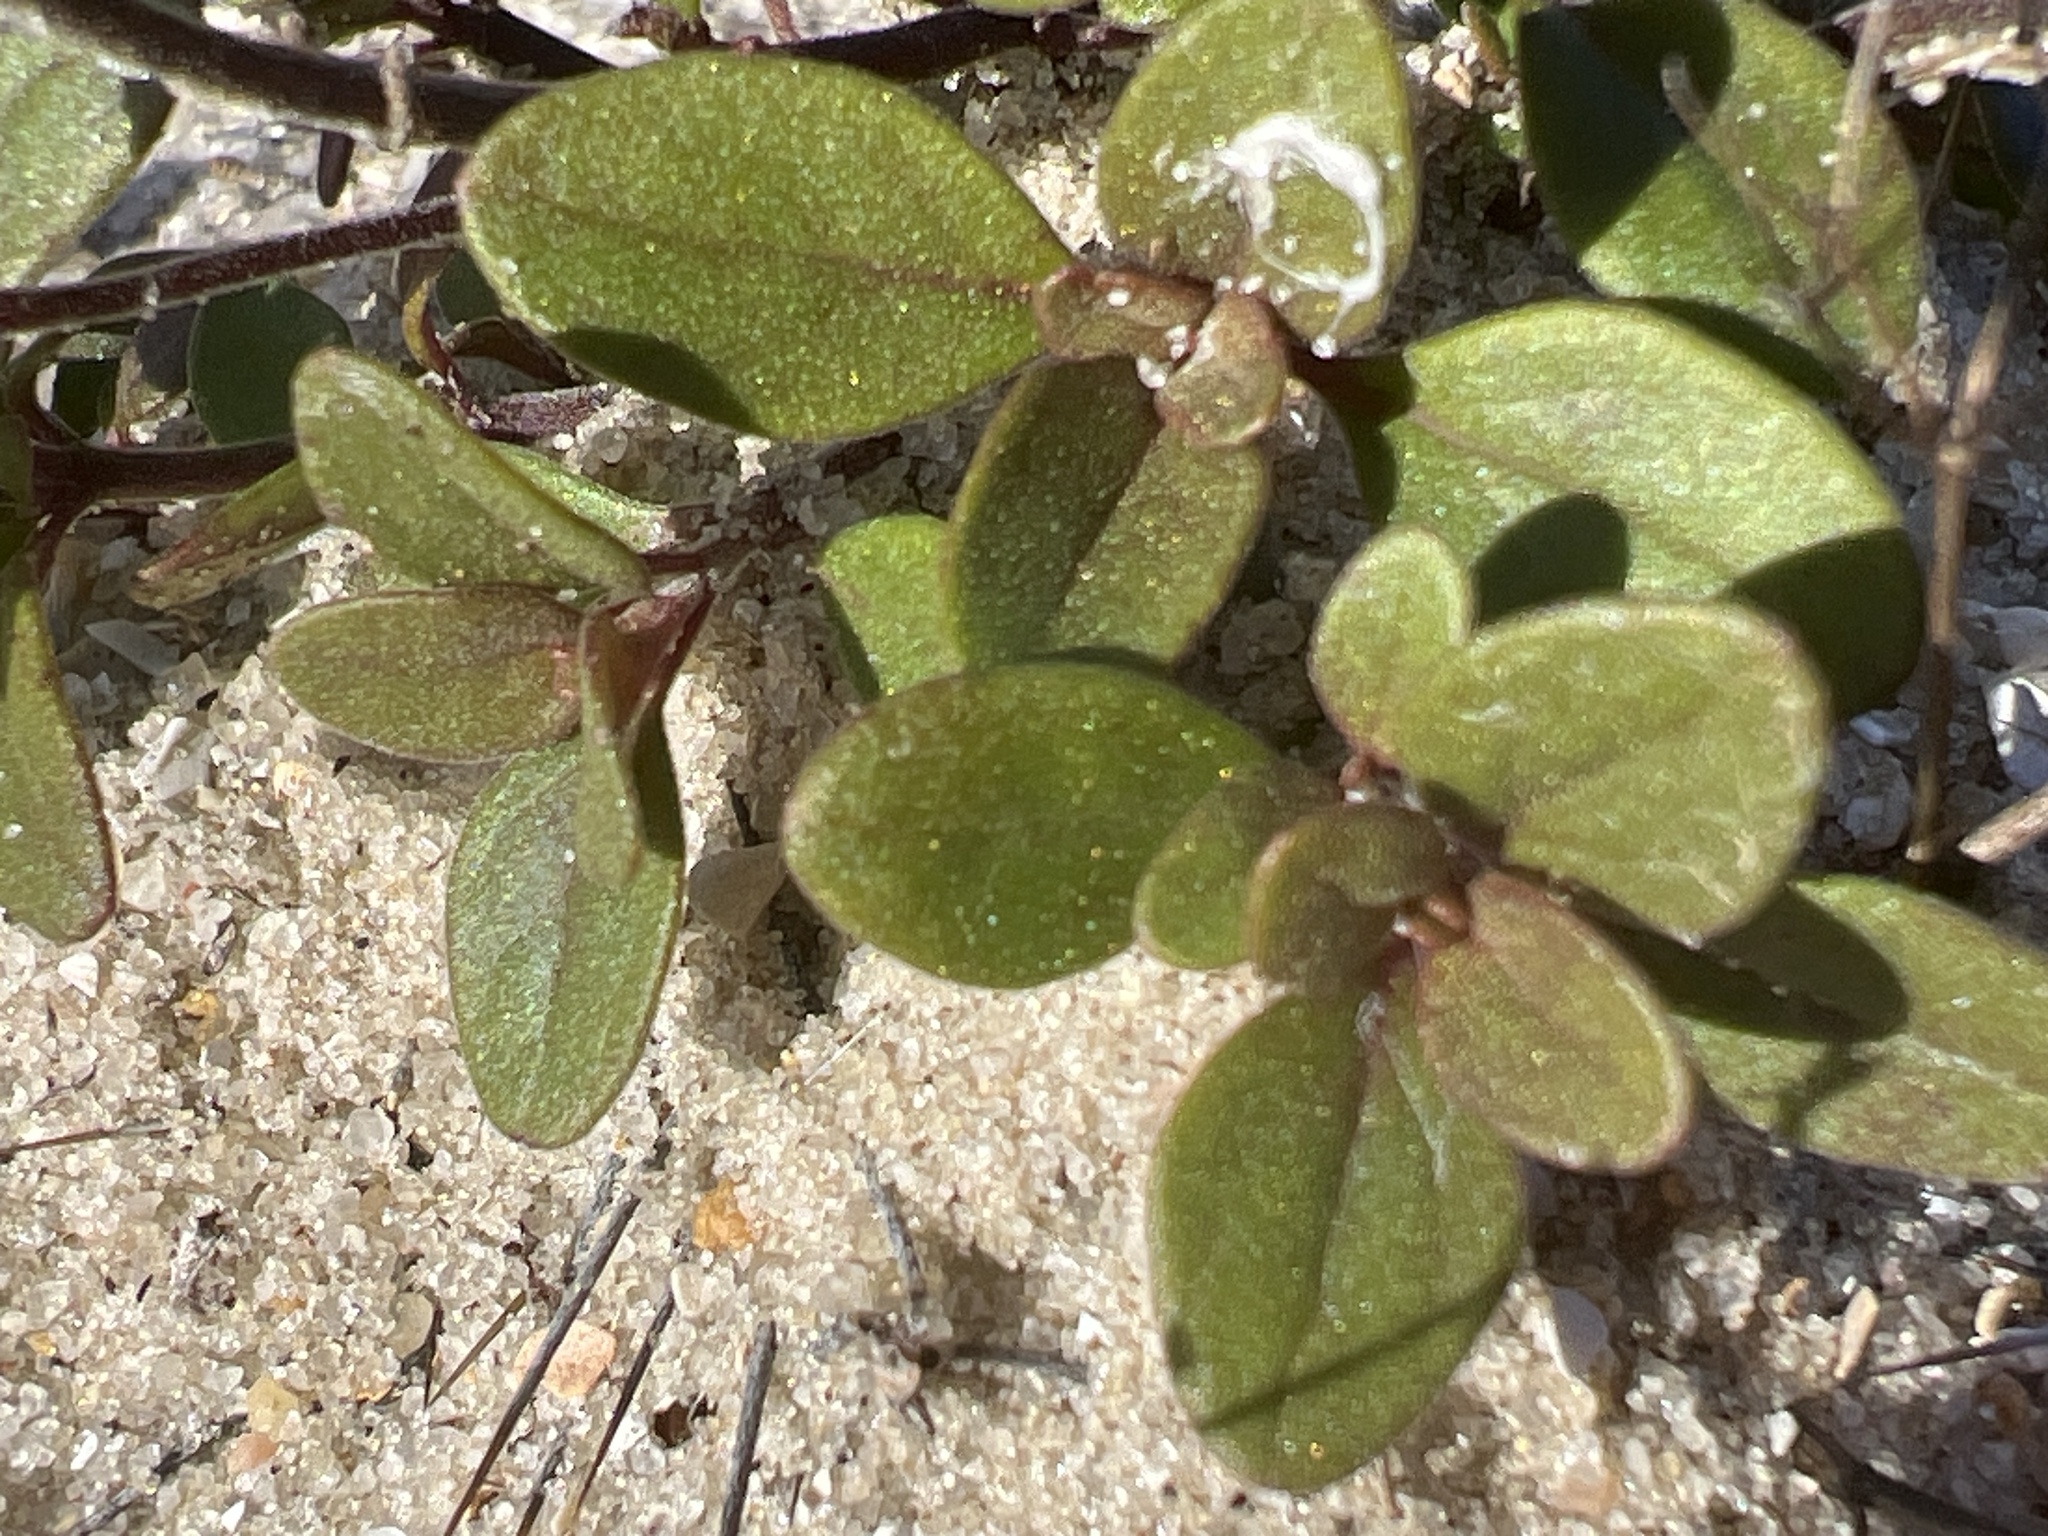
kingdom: Plantae
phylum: Tracheophyta
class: Magnoliopsida
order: Lamiales
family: Lamiaceae
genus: Trichostema
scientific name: Trichostema nesophilum
